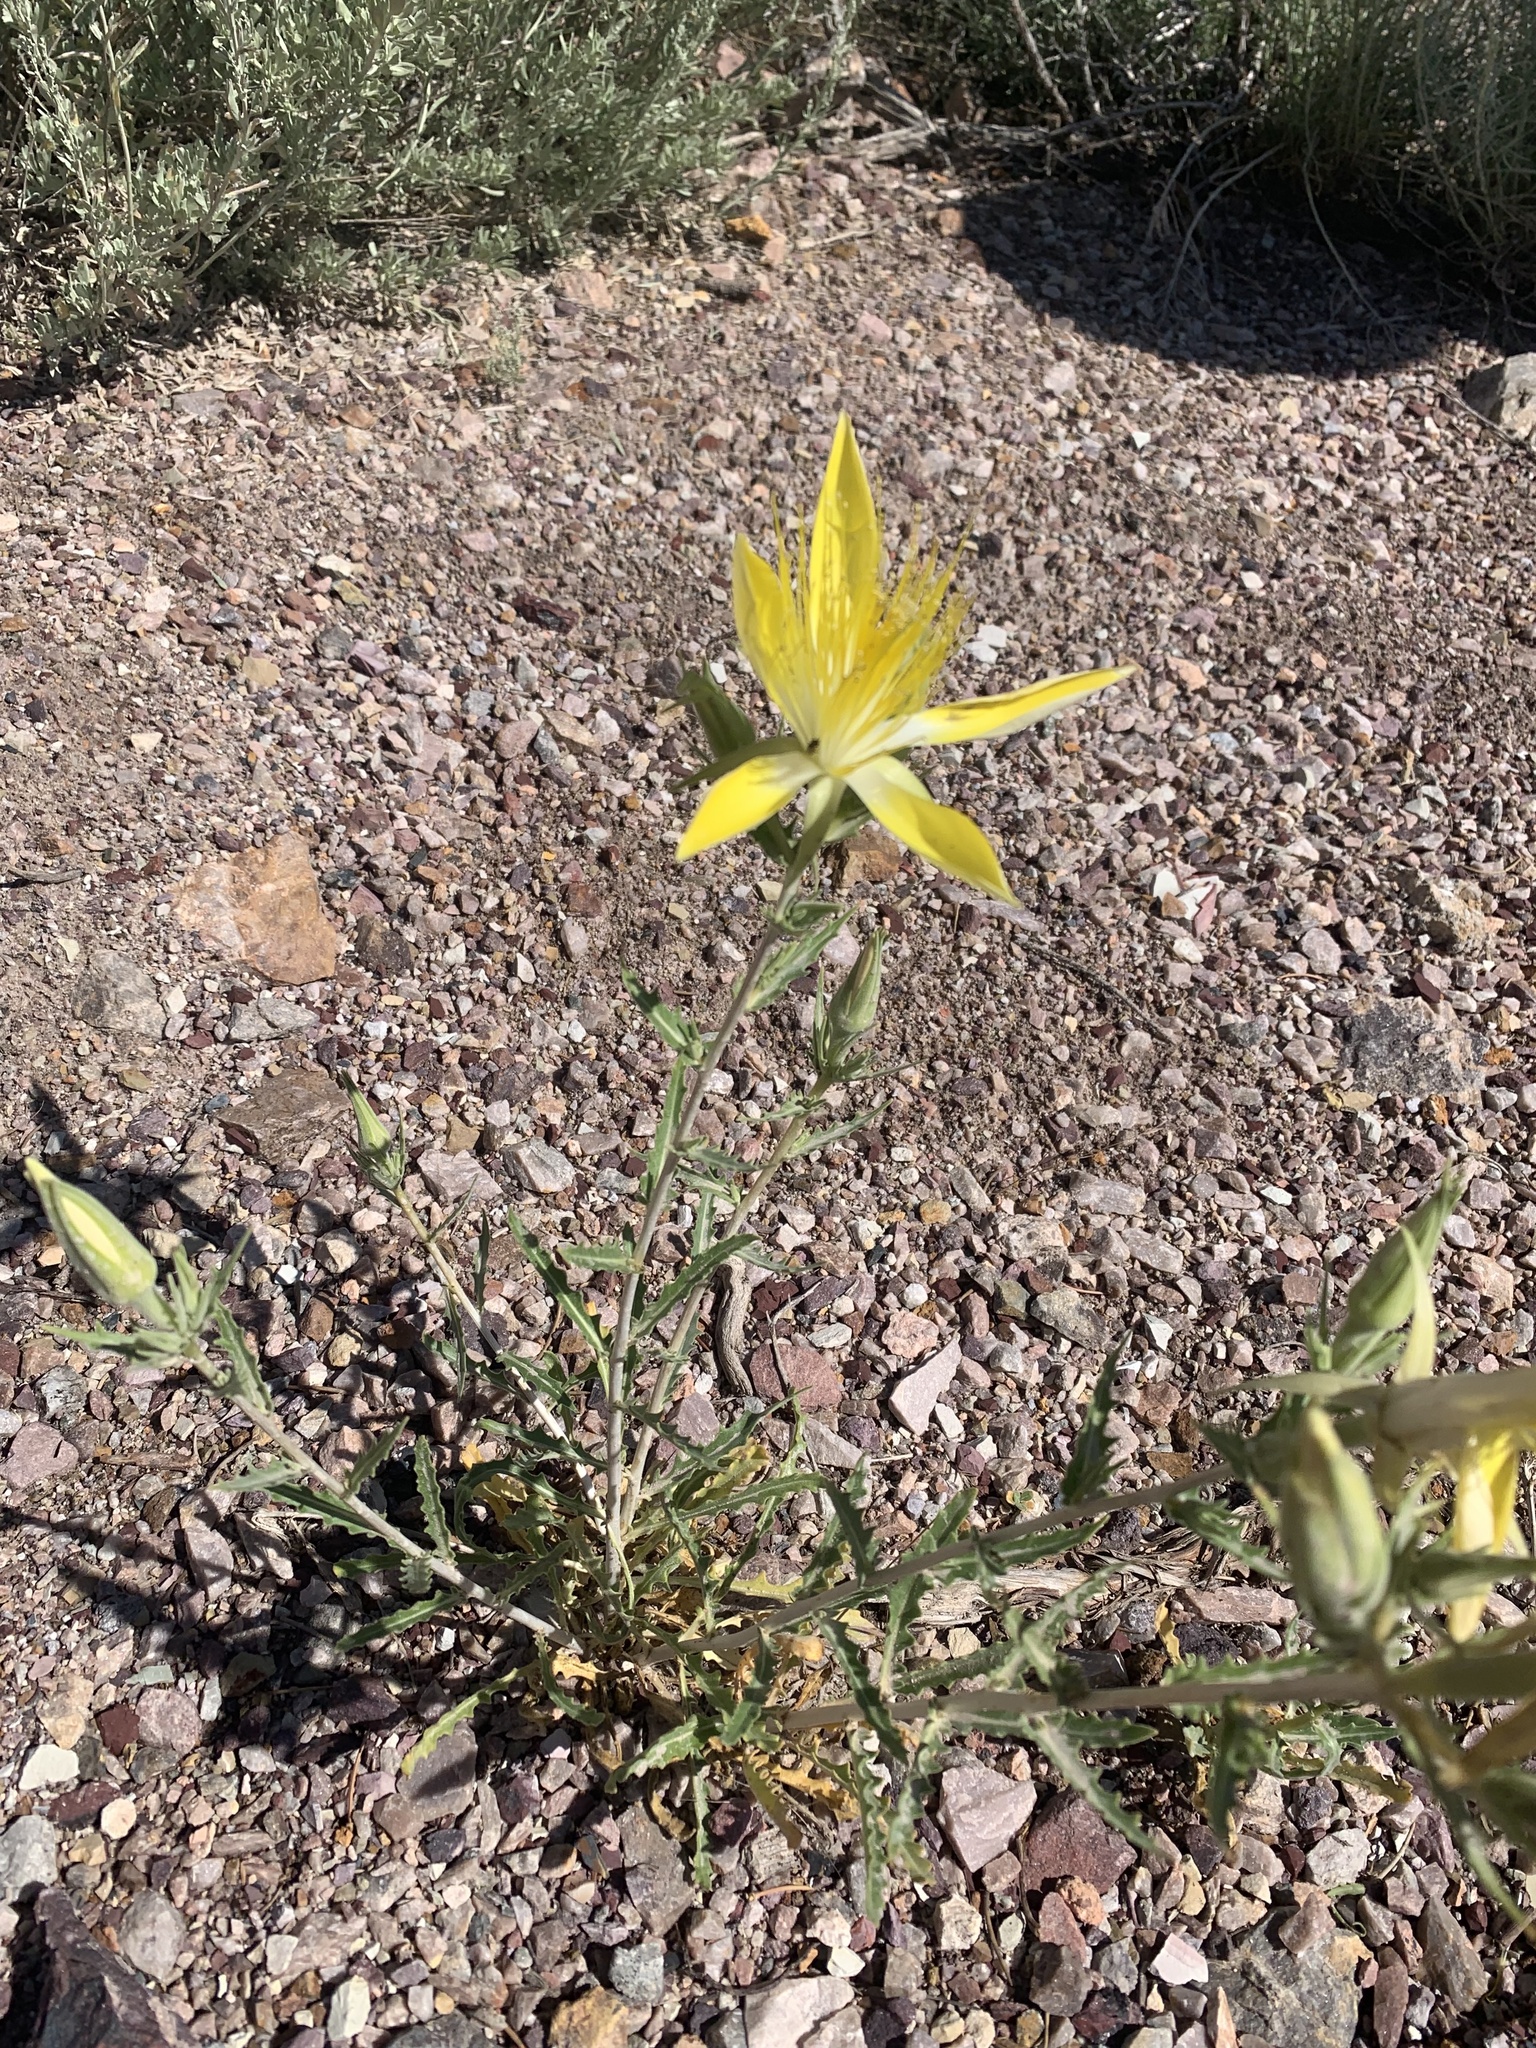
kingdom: Plantae
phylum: Tracheophyta
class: Magnoliopsida
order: Cornales
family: Loasaceae
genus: Mentzelia
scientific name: Mentzelia laevicaulis
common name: Smooth-stem blazingstar
